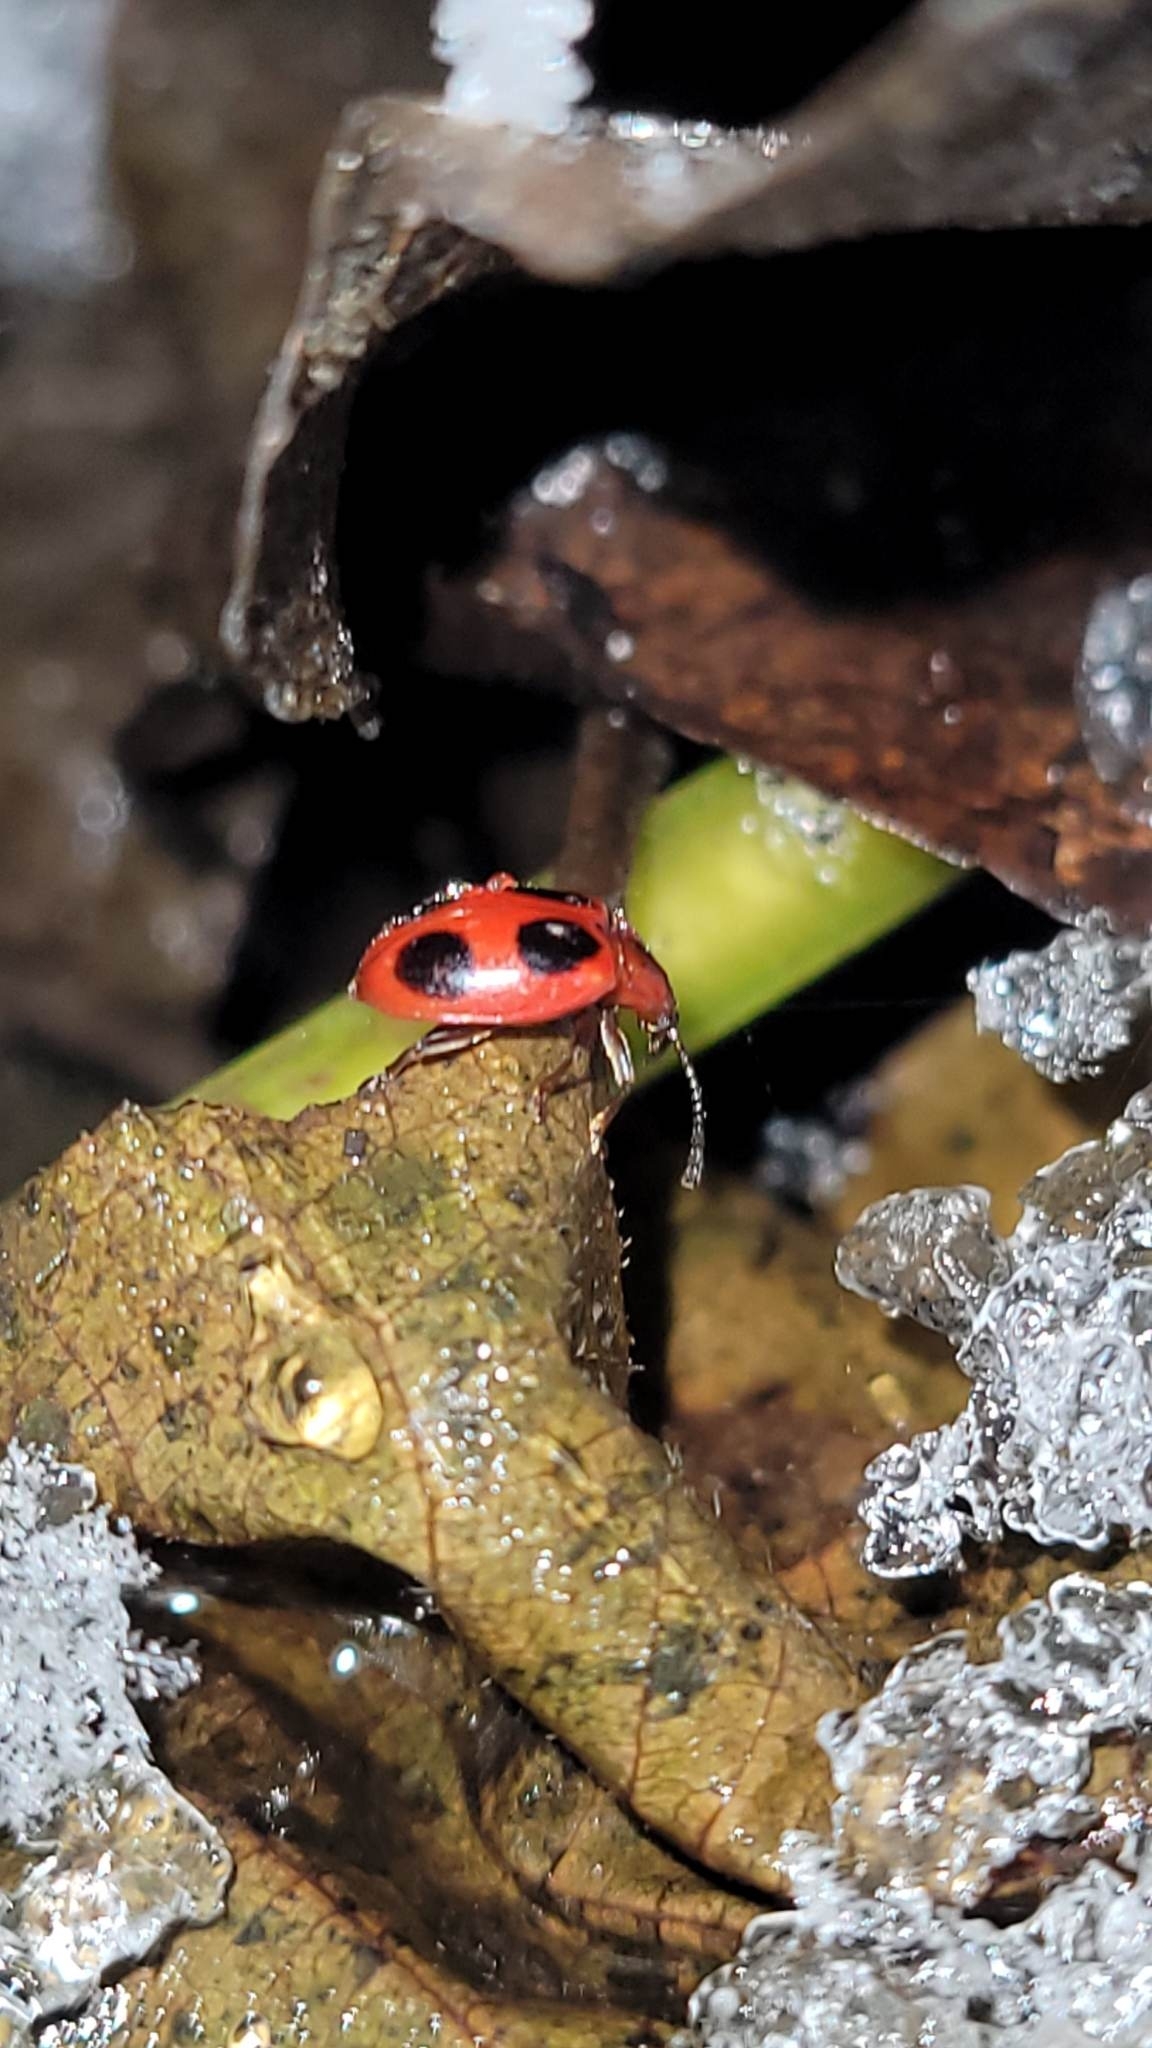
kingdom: Animalia
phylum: Arthropoda
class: Insecta
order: Coleoptera
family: Endomychidae
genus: Endomychus
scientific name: Endomychus coccineus
